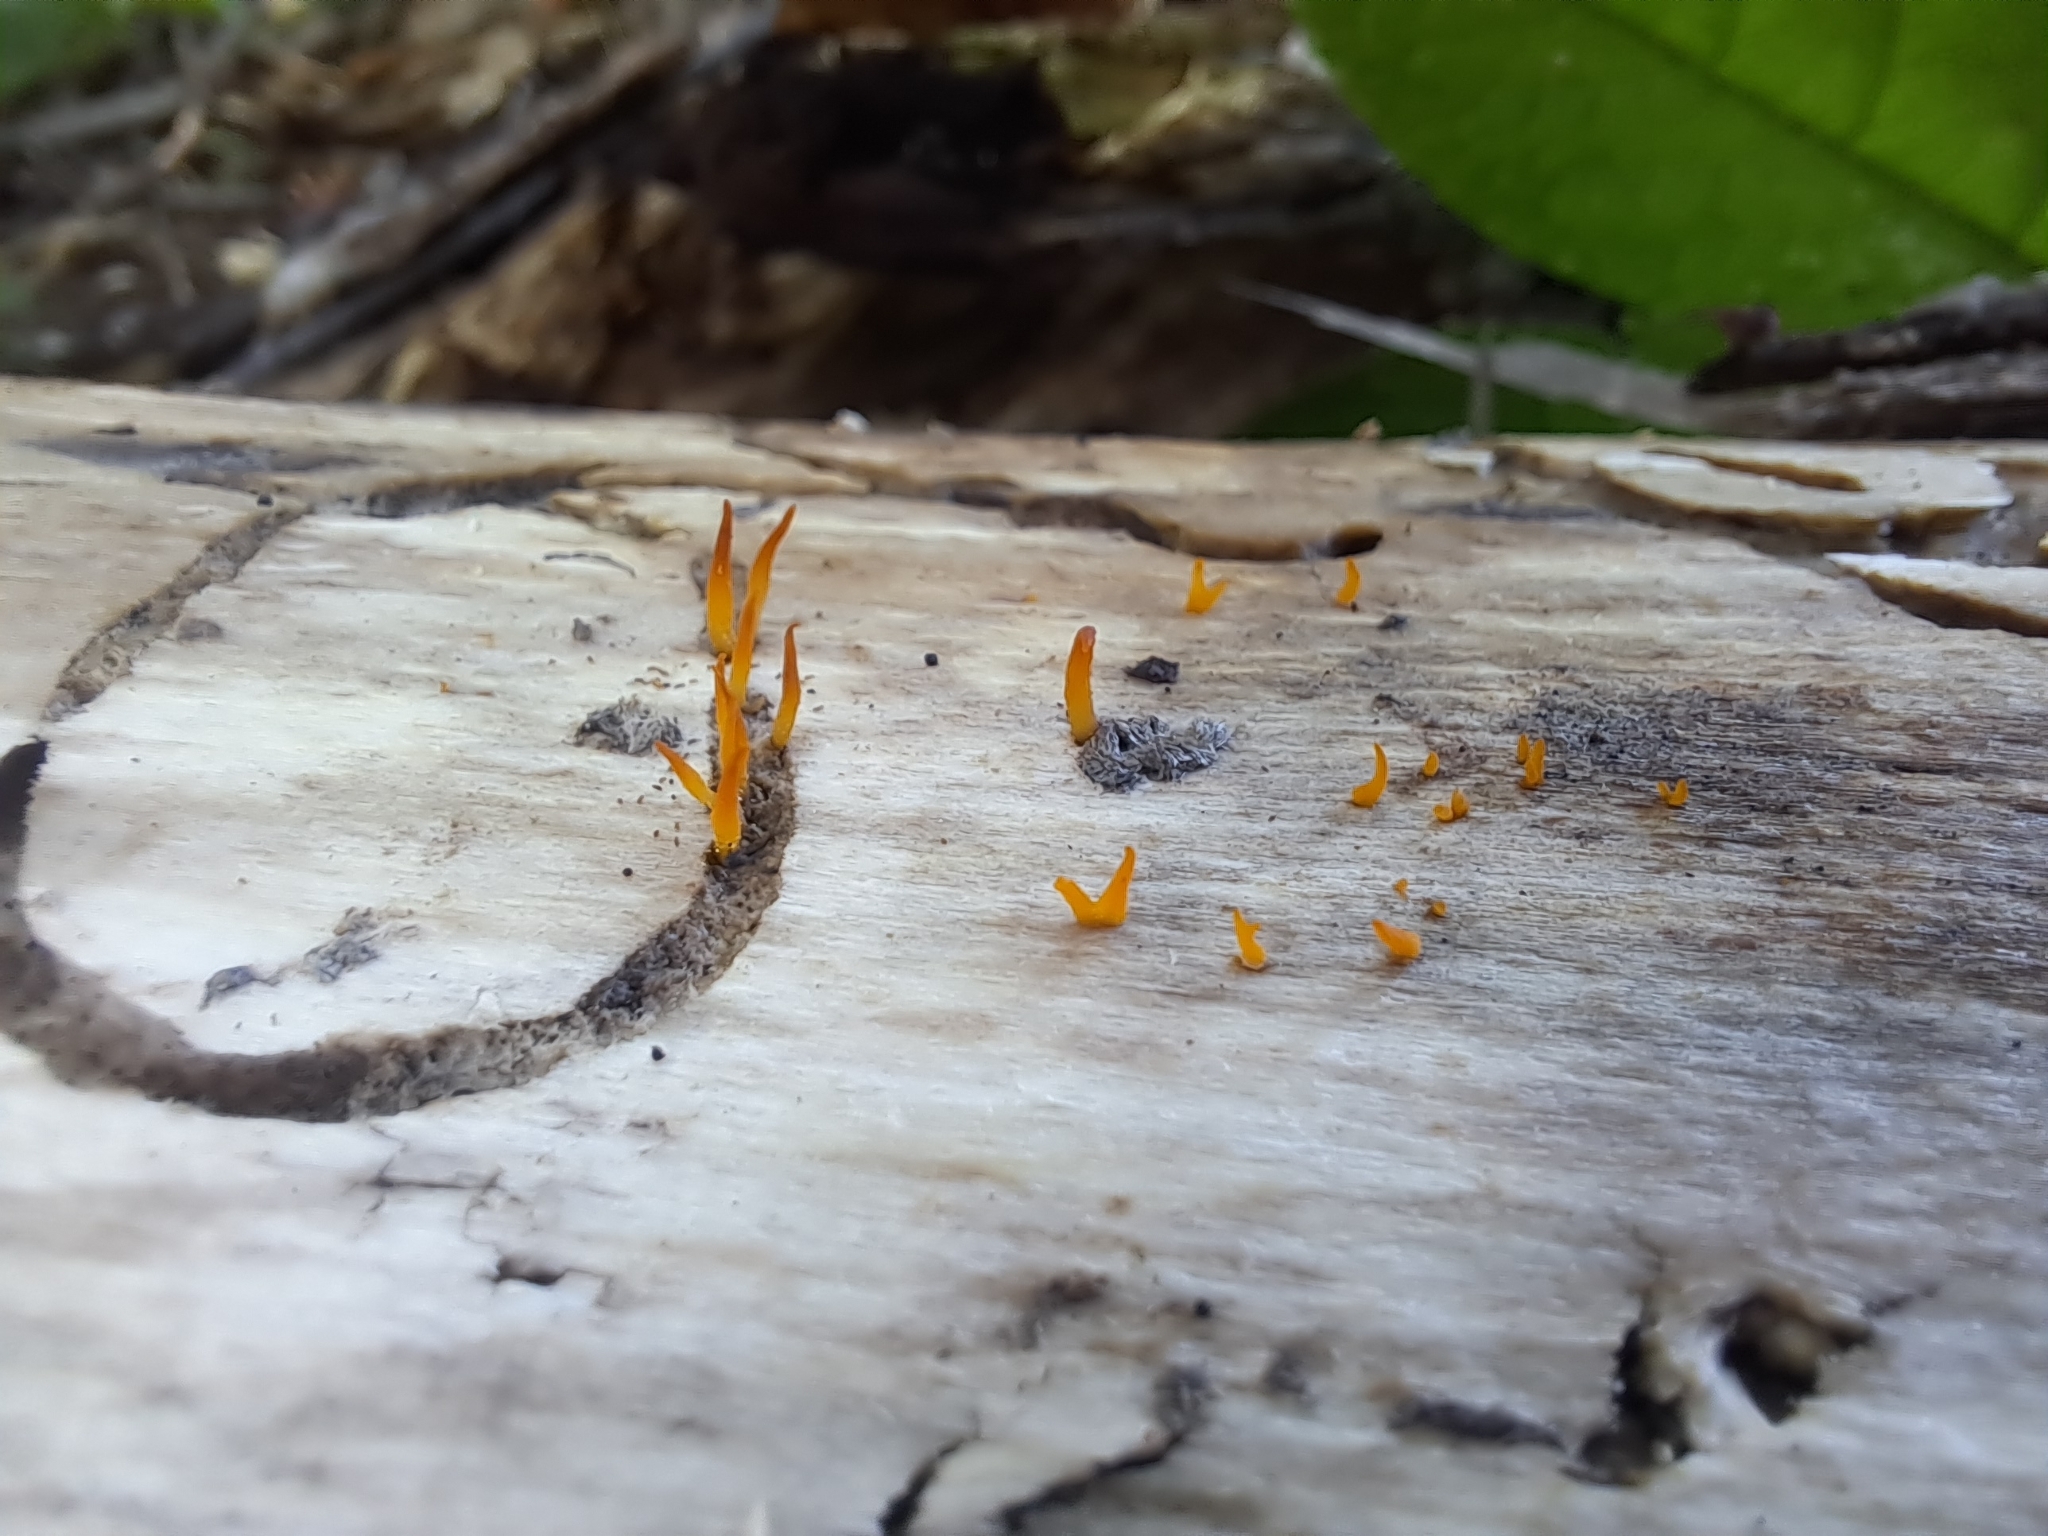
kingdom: Fungi
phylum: Basidiomycota
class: Dacrymycetes
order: Dacrymycetales
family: Dacrymycetaceae
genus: Calocera
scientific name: Calocera cornea
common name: Small stagshorn
